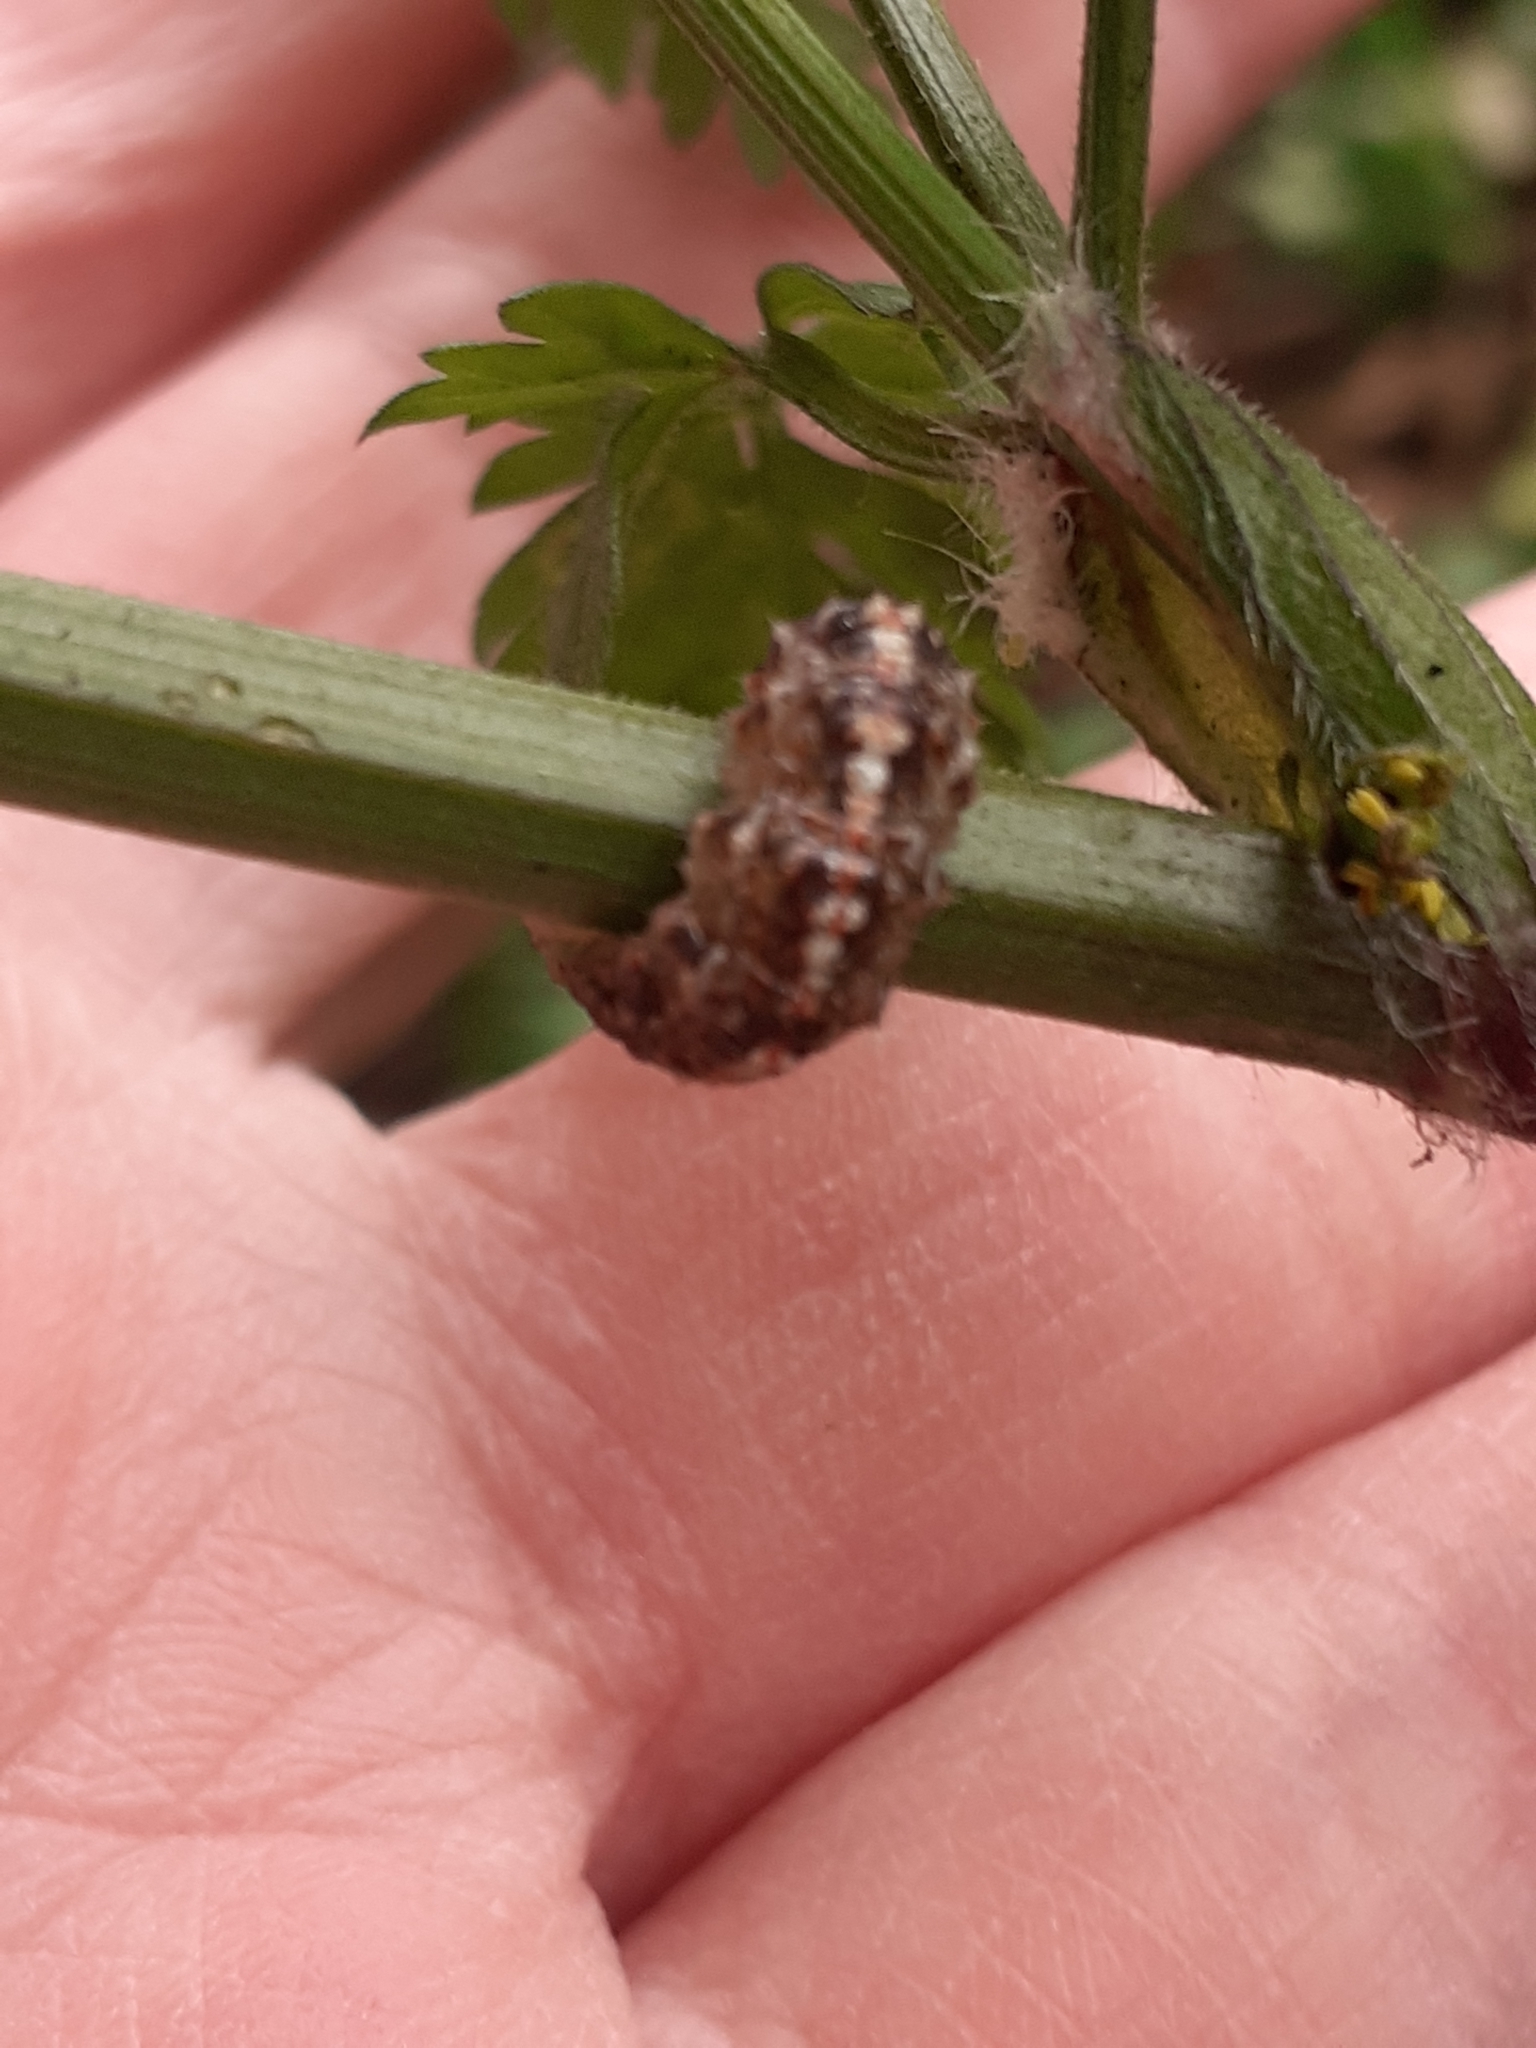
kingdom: Animalia
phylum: Arthropoda
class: Insecta
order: Diptera
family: Syrphidae
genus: Eupeodes
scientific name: Eupeodes
